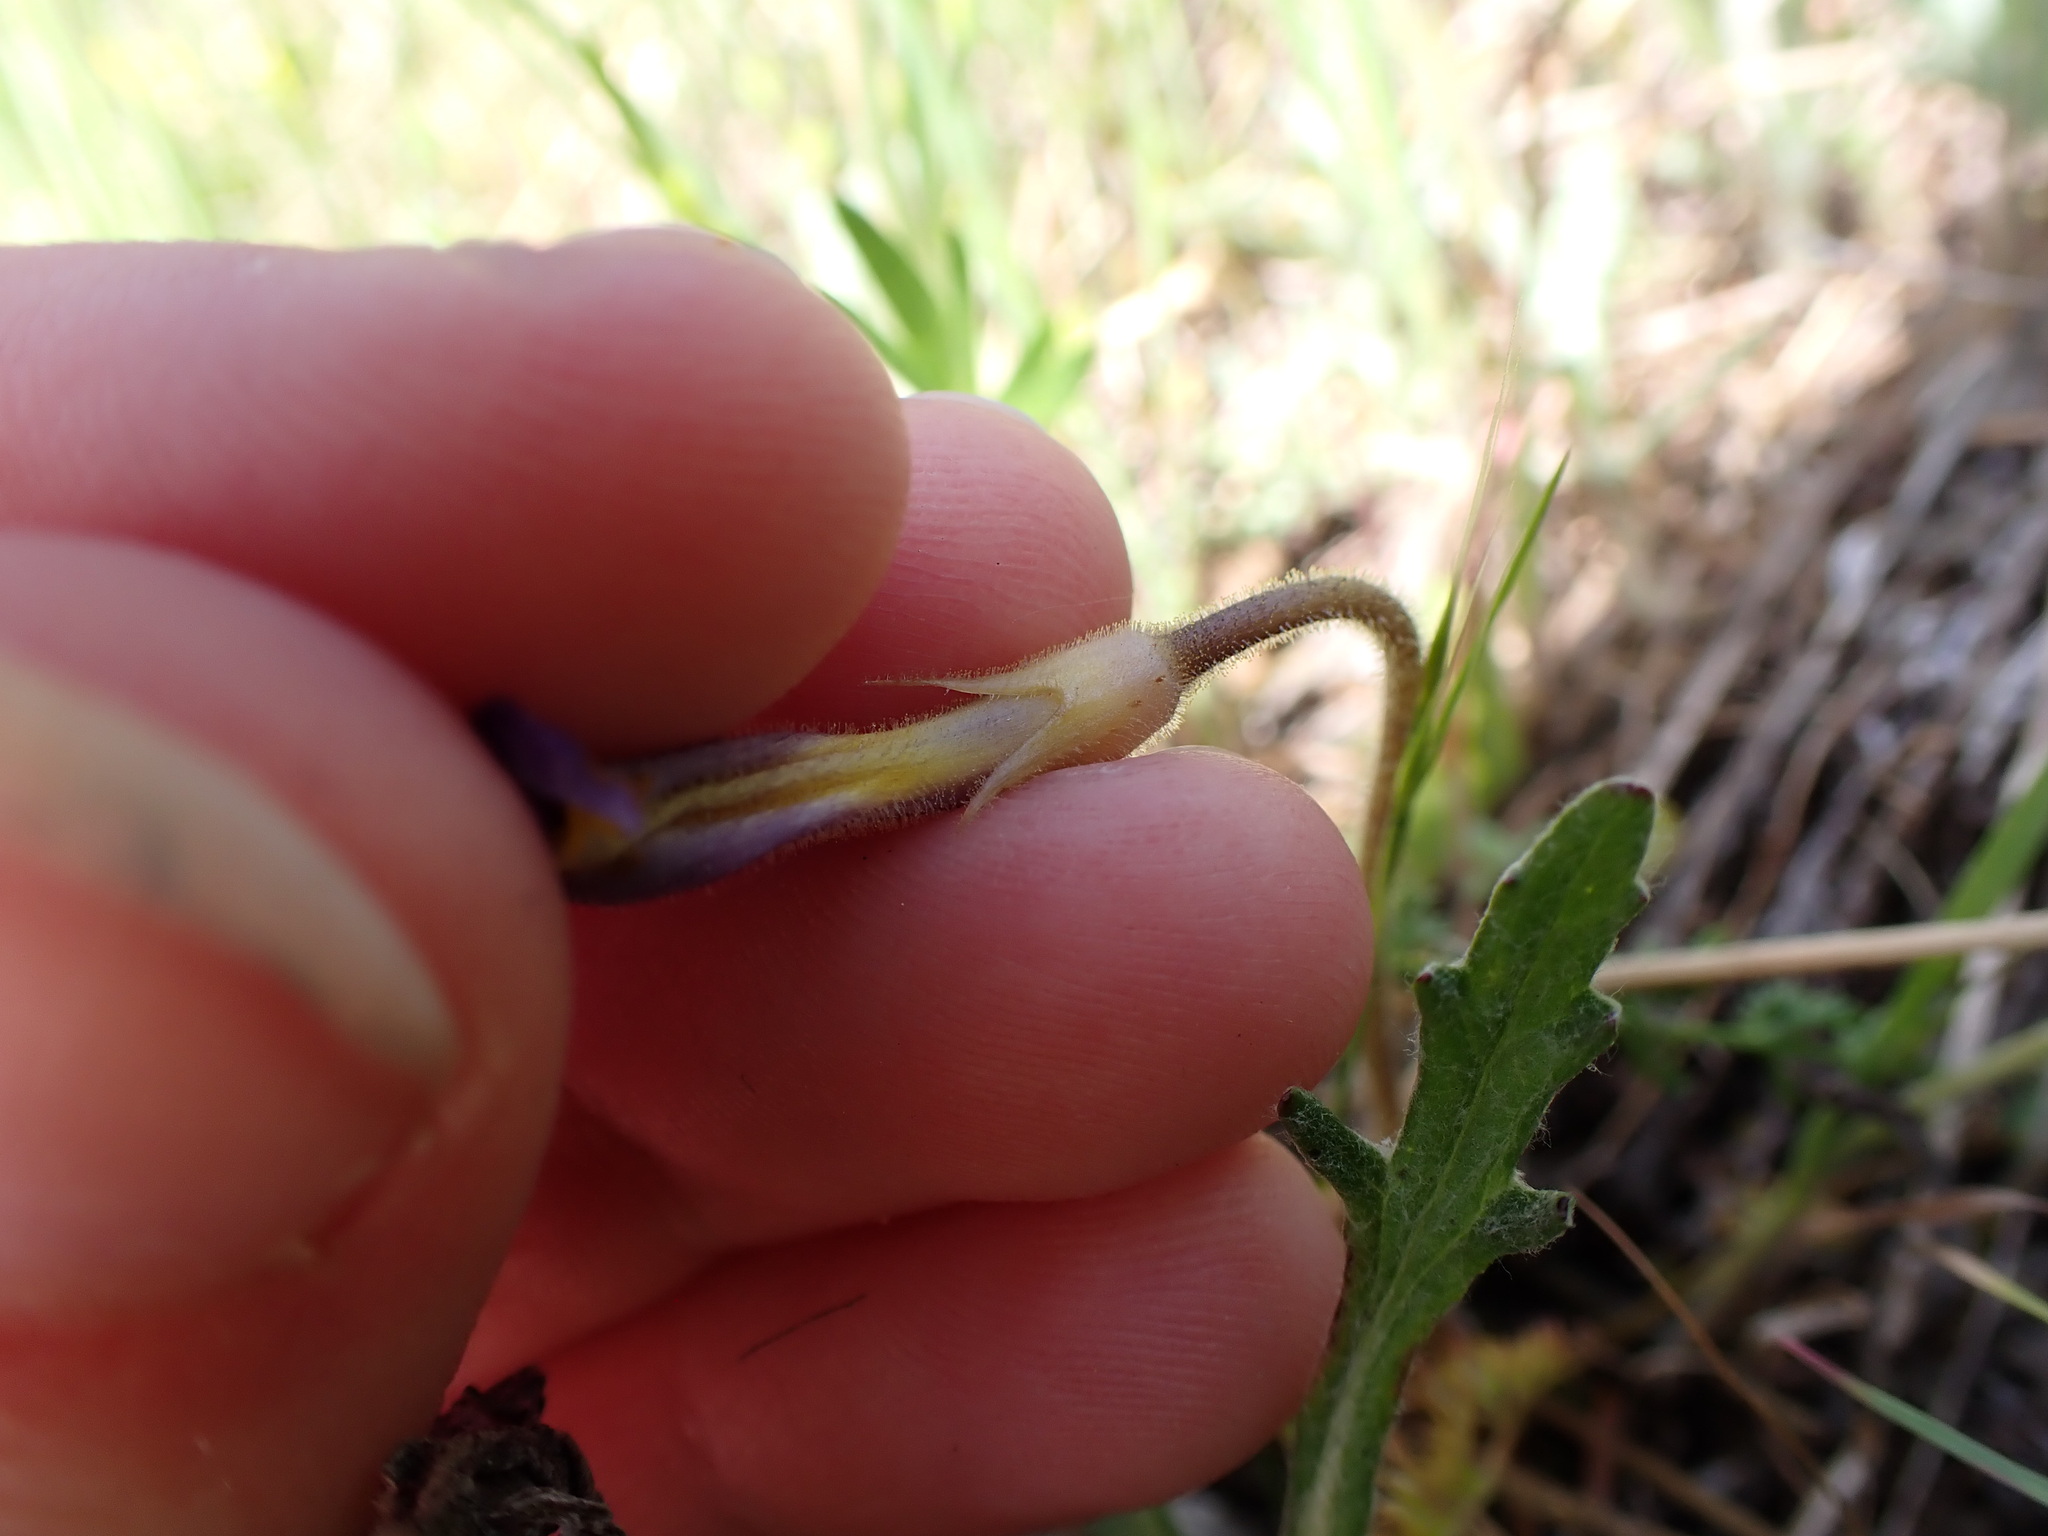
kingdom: Plantae
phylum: Tracheophyta
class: Magnoliopsida
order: Lamiales
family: Orobanchaceae
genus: Aphyllon
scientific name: Aphyllon uniflorum
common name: One-flowered broomrape
